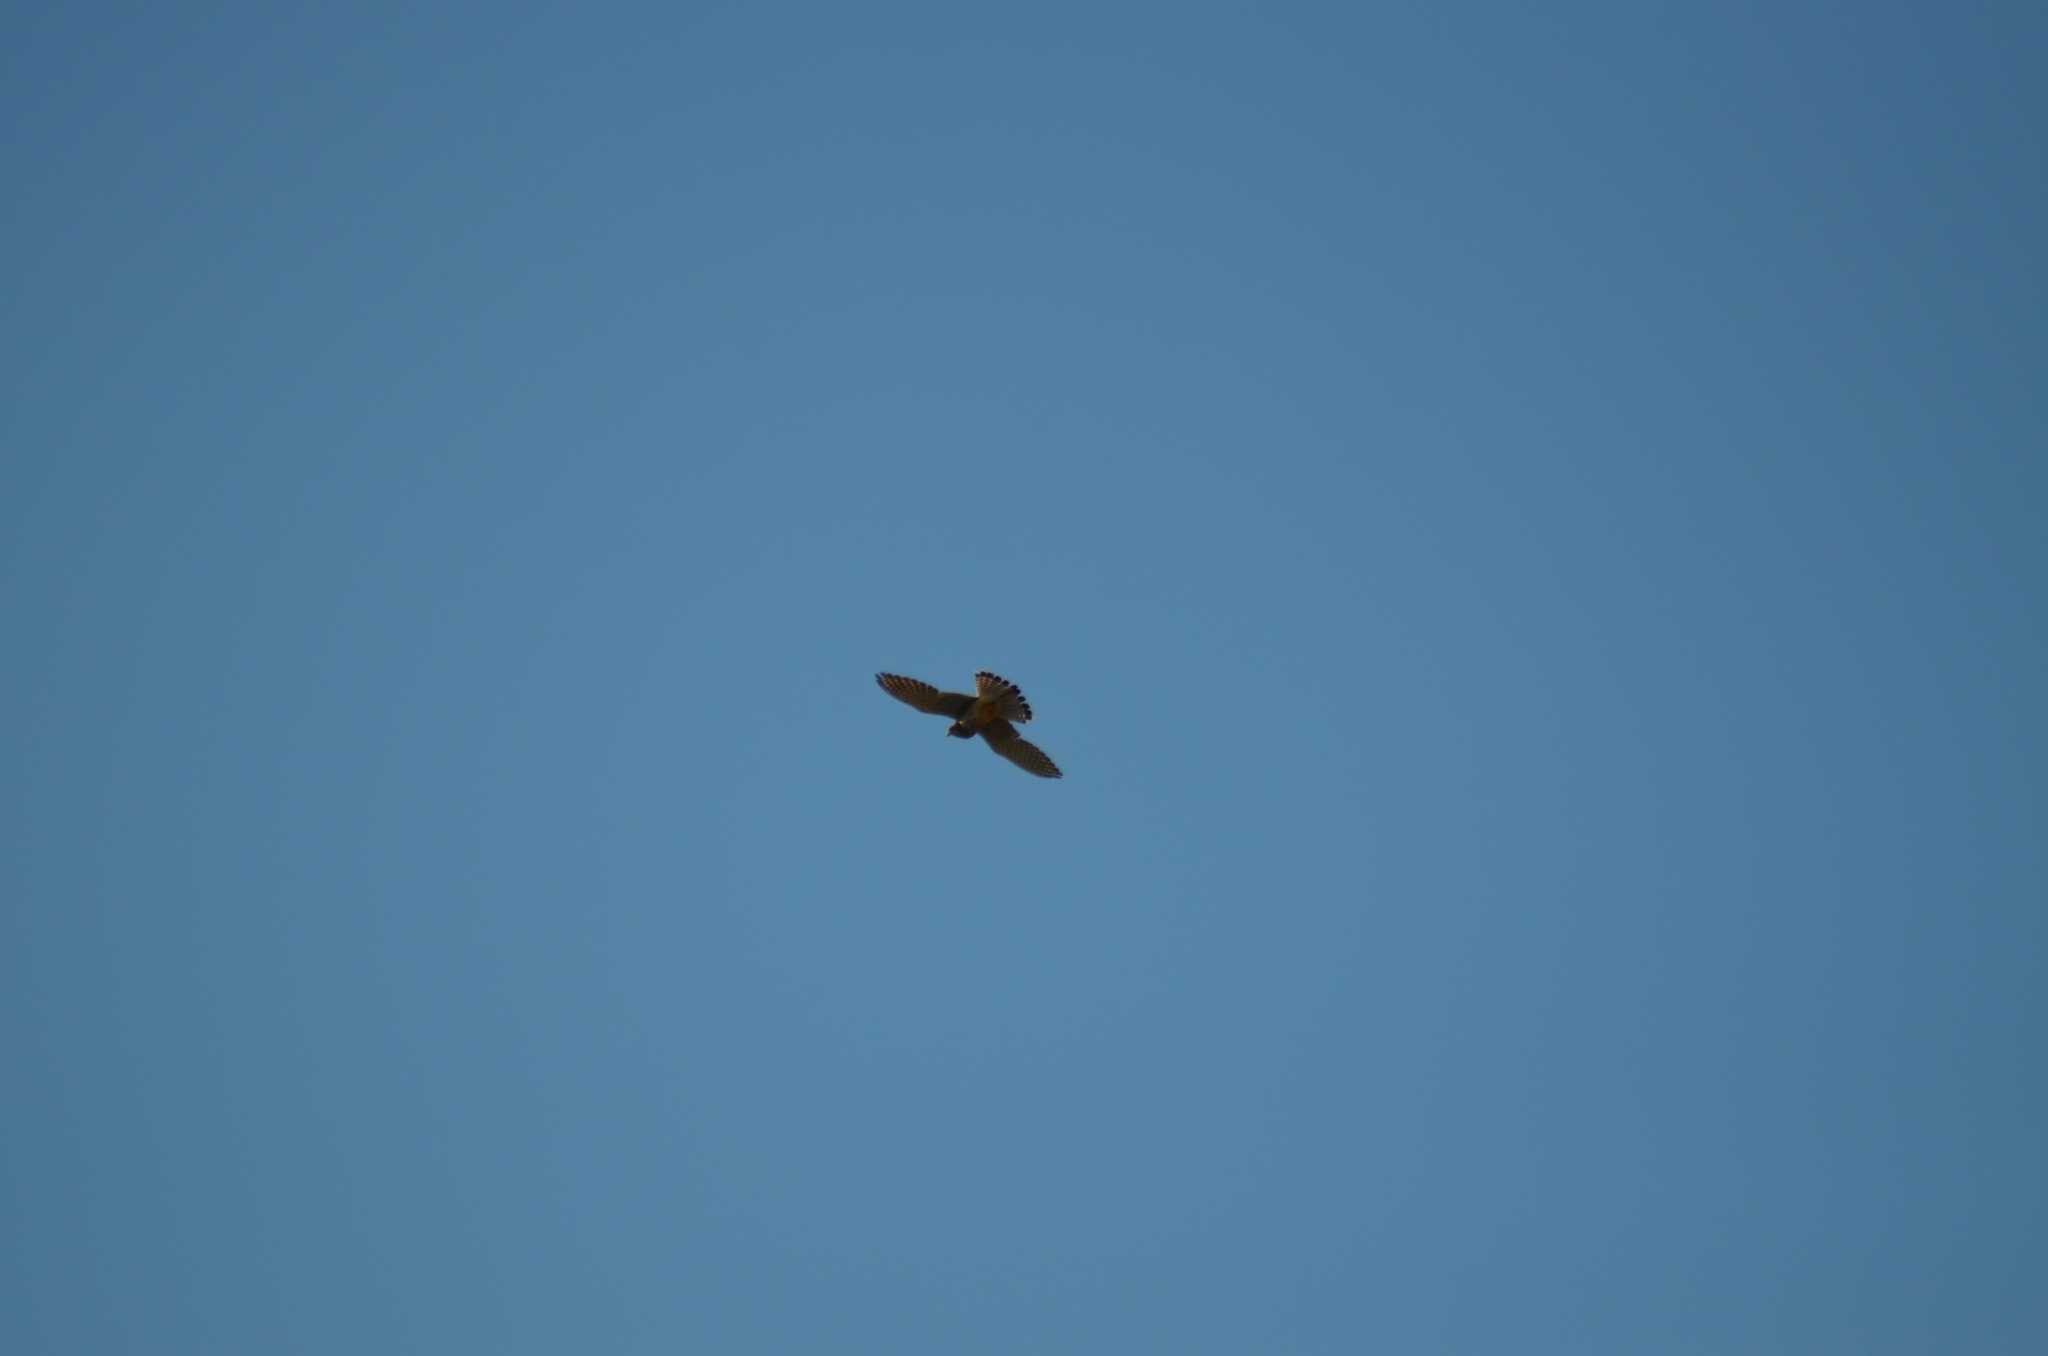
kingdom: Animalia
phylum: Chordata
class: Aves
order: Falconiformes
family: Falconidae
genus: Falco
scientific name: Falco tinnunculus
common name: Common kestrel
